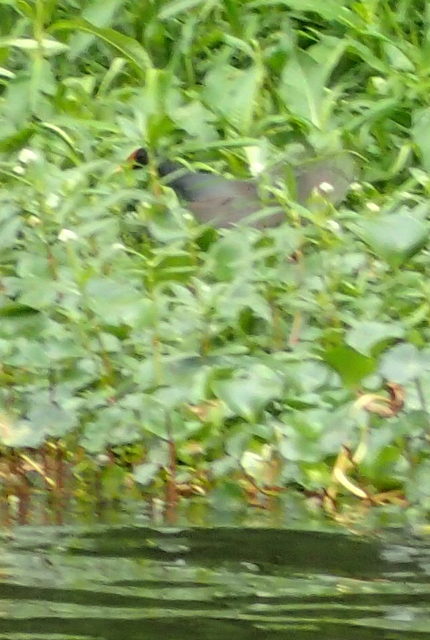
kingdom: Animalia
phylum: Chordata
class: Aves
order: Gruiformes
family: Rallidae
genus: Porphyrio
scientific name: Porphyrio martinica
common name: Purple gallinule
